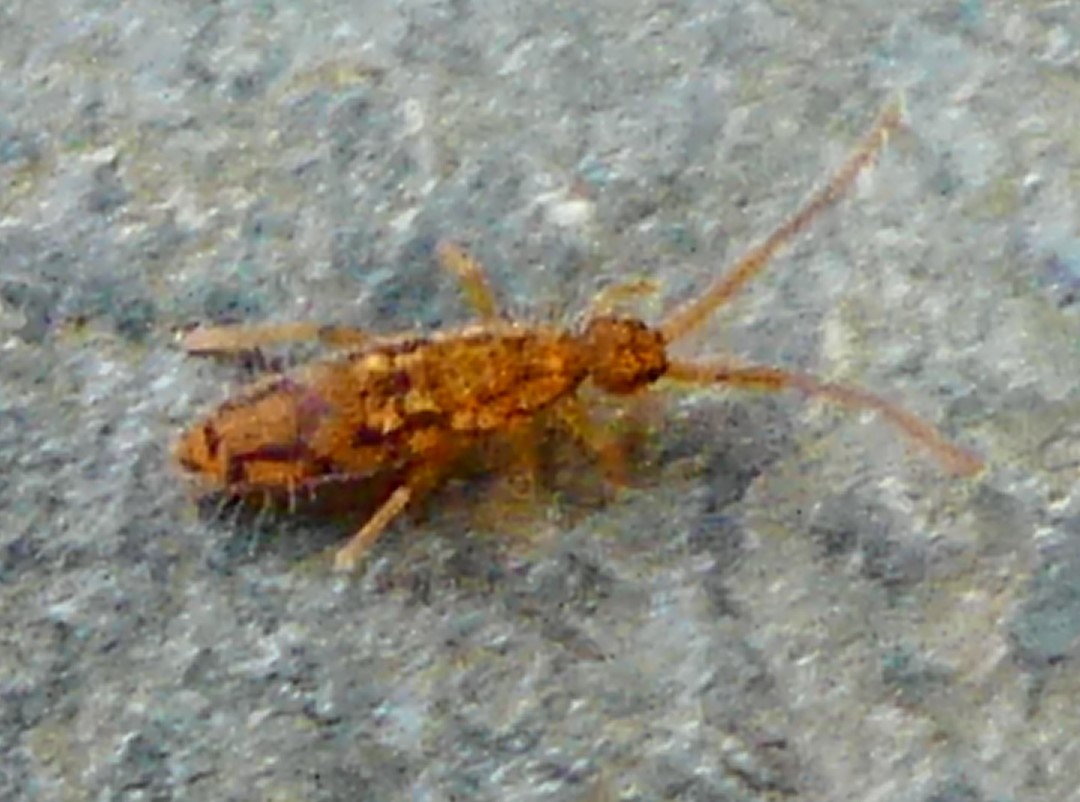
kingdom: Animalia
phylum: Arthropoda
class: Collembola
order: Entomobryomorpha
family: Entomobryidae
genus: Entomobrya
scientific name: Entomobrya intermedia
